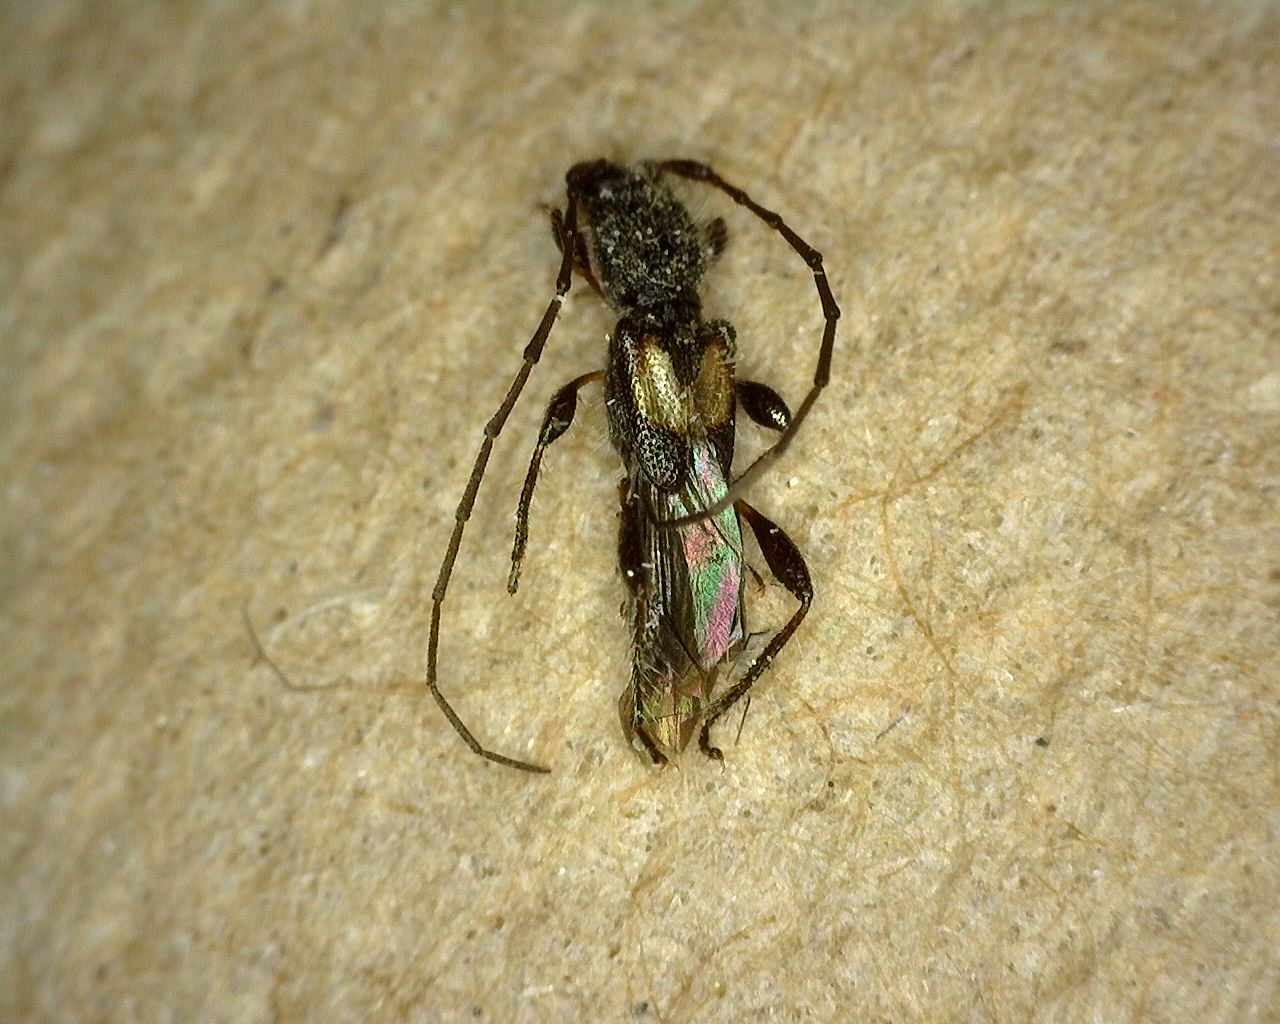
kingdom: Animalia
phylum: Arthropoda
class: Insecta
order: Coleoptera
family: Cerambycidae
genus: Molorchus
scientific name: Molorchus bimaculatus
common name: Bimaculate longhorn beetle
